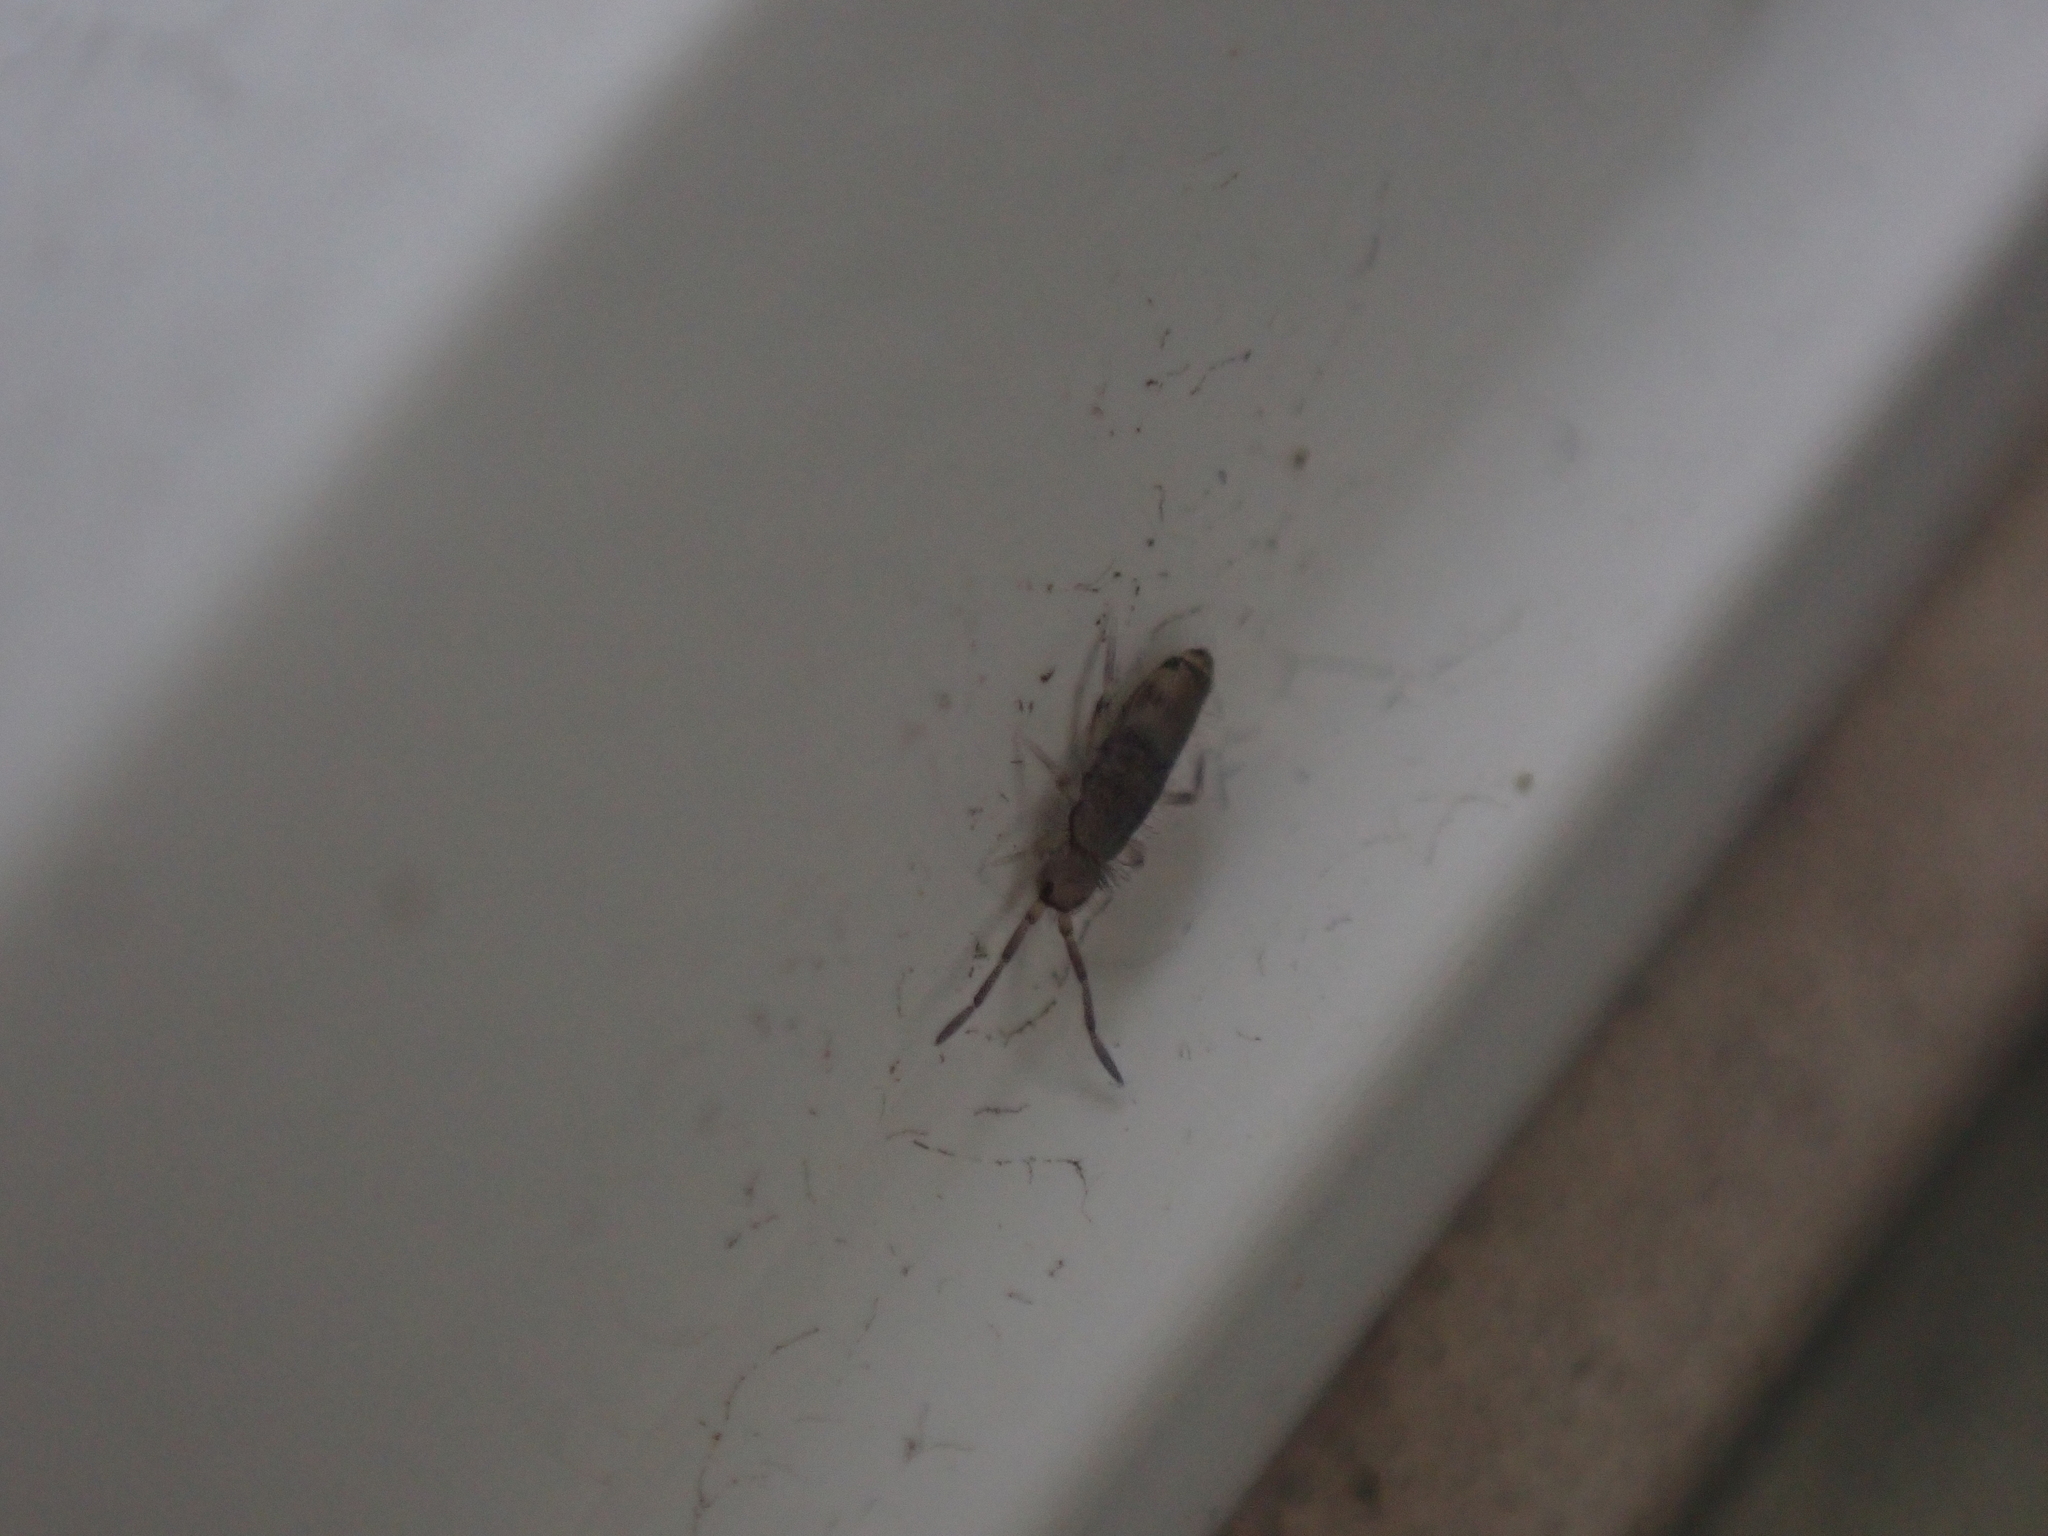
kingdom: Animalia
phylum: Arthropoda
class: Collembola
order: Entomobryomorpha
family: Entomobryidae
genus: Willowsia
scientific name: Willowsia nigromaculata
